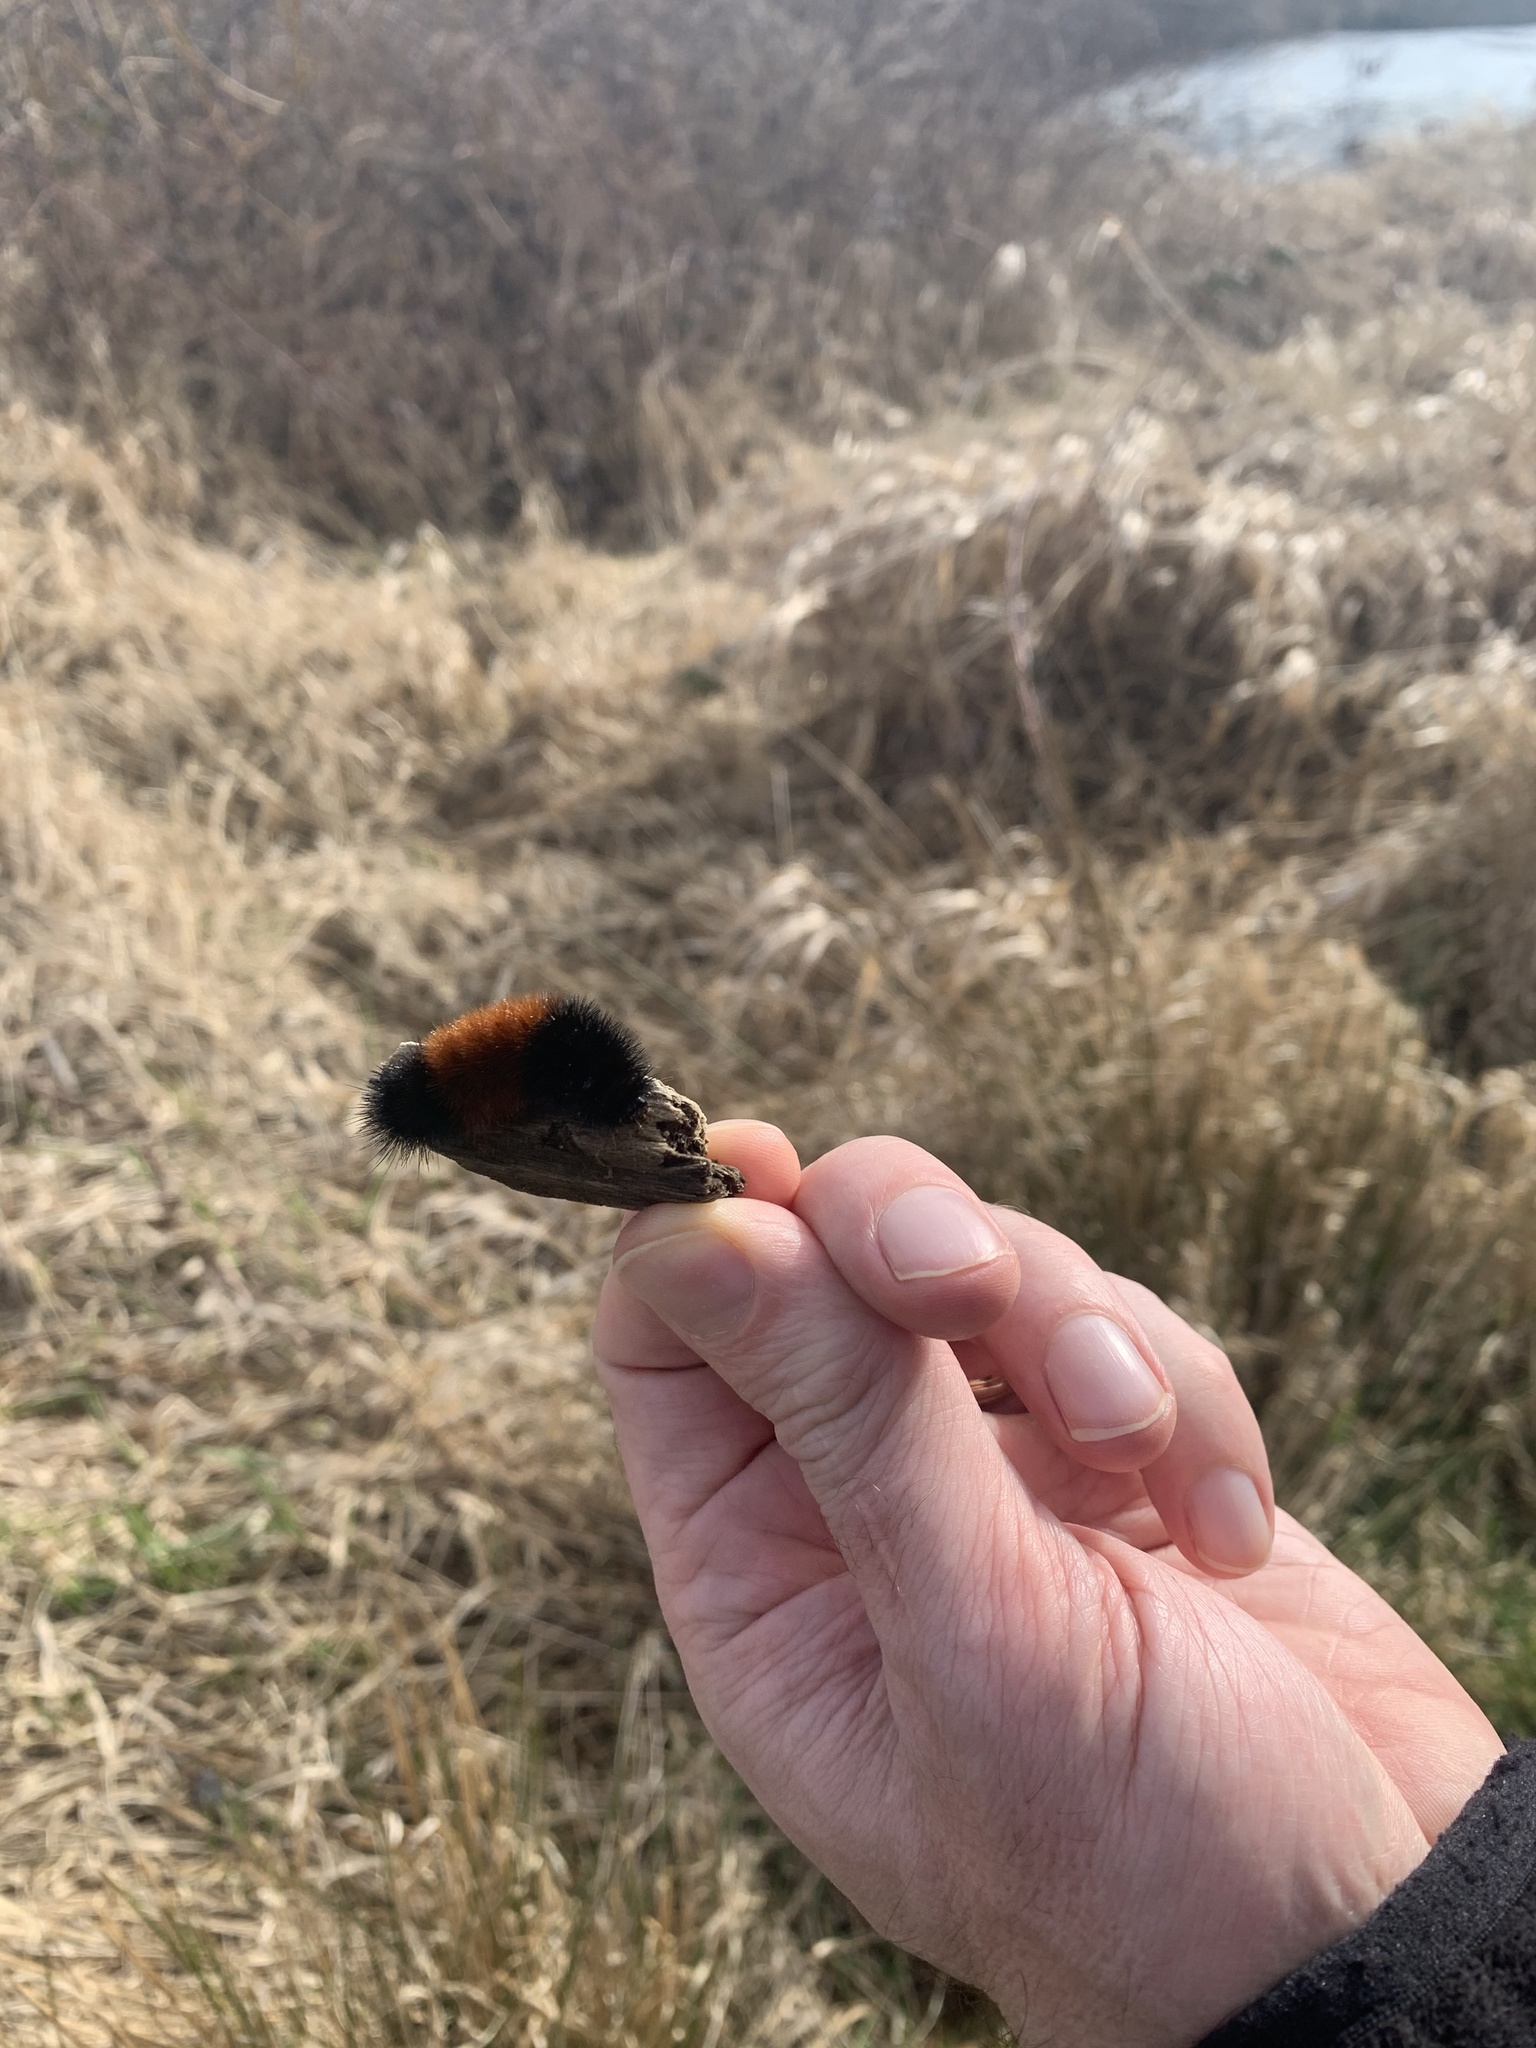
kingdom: Animalia
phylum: Arthropoda
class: Insecta
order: Lepidoptera
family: Erebidae
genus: Pyrrharctia
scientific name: Pyrrharctia isabella
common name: Isabella tiger moth
